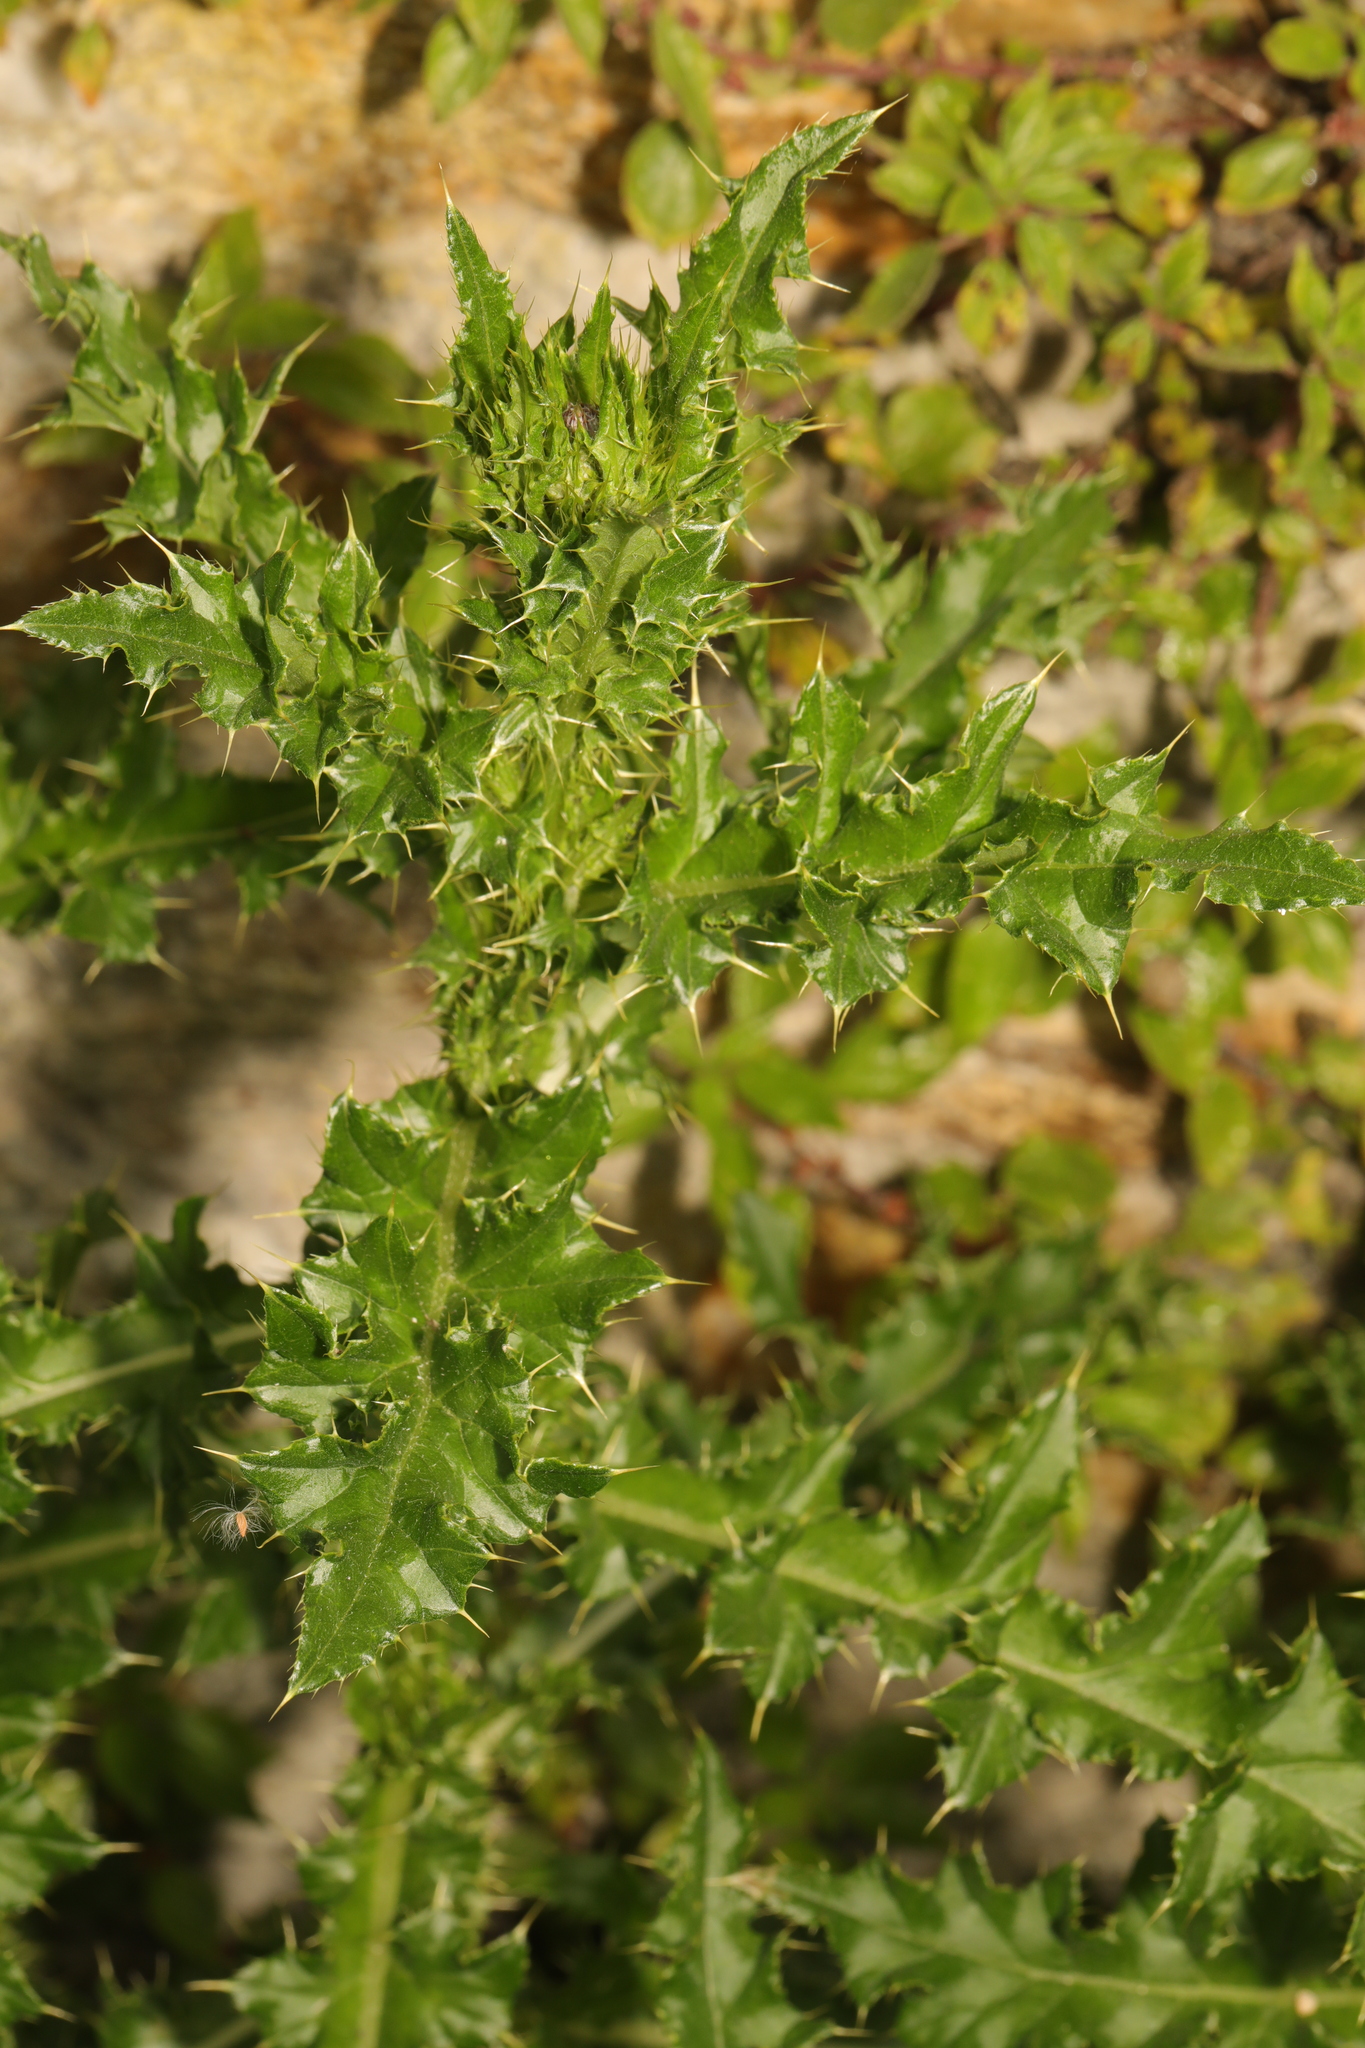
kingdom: Plantae
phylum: Tracheophyta
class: Magnoliopsida
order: Asterales
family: Asteraceae
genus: Cirsium
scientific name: Cirsium arvense
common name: Creeping thistle
